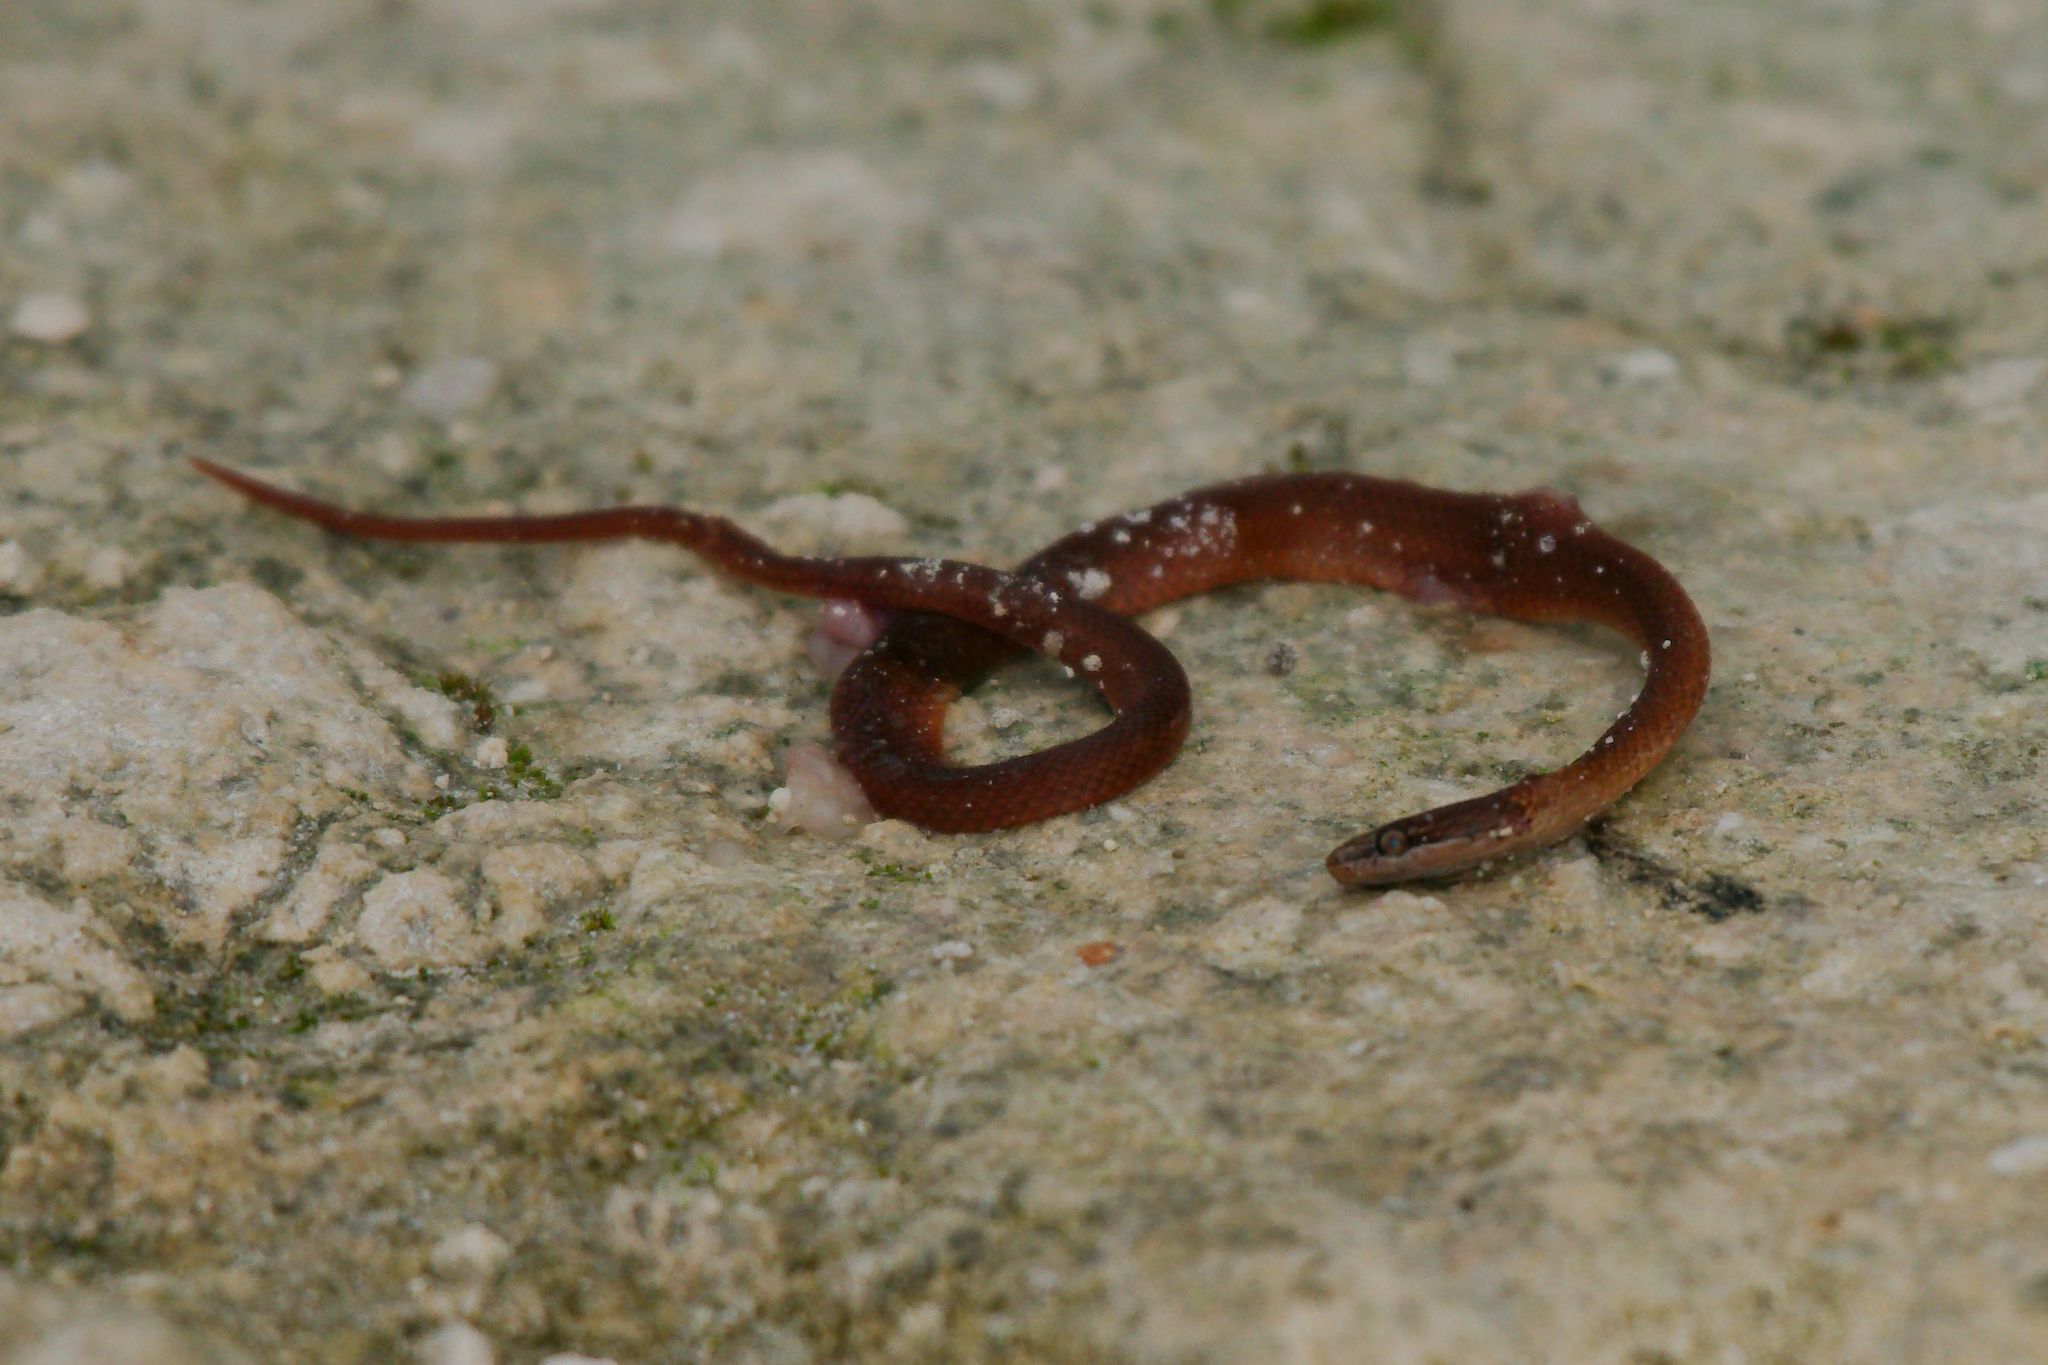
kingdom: Animalia
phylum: Chordata
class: Squamata
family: Colubridae
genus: Rhadinaea
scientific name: Rhadinaea flavilata
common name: Pine woods littersnake
